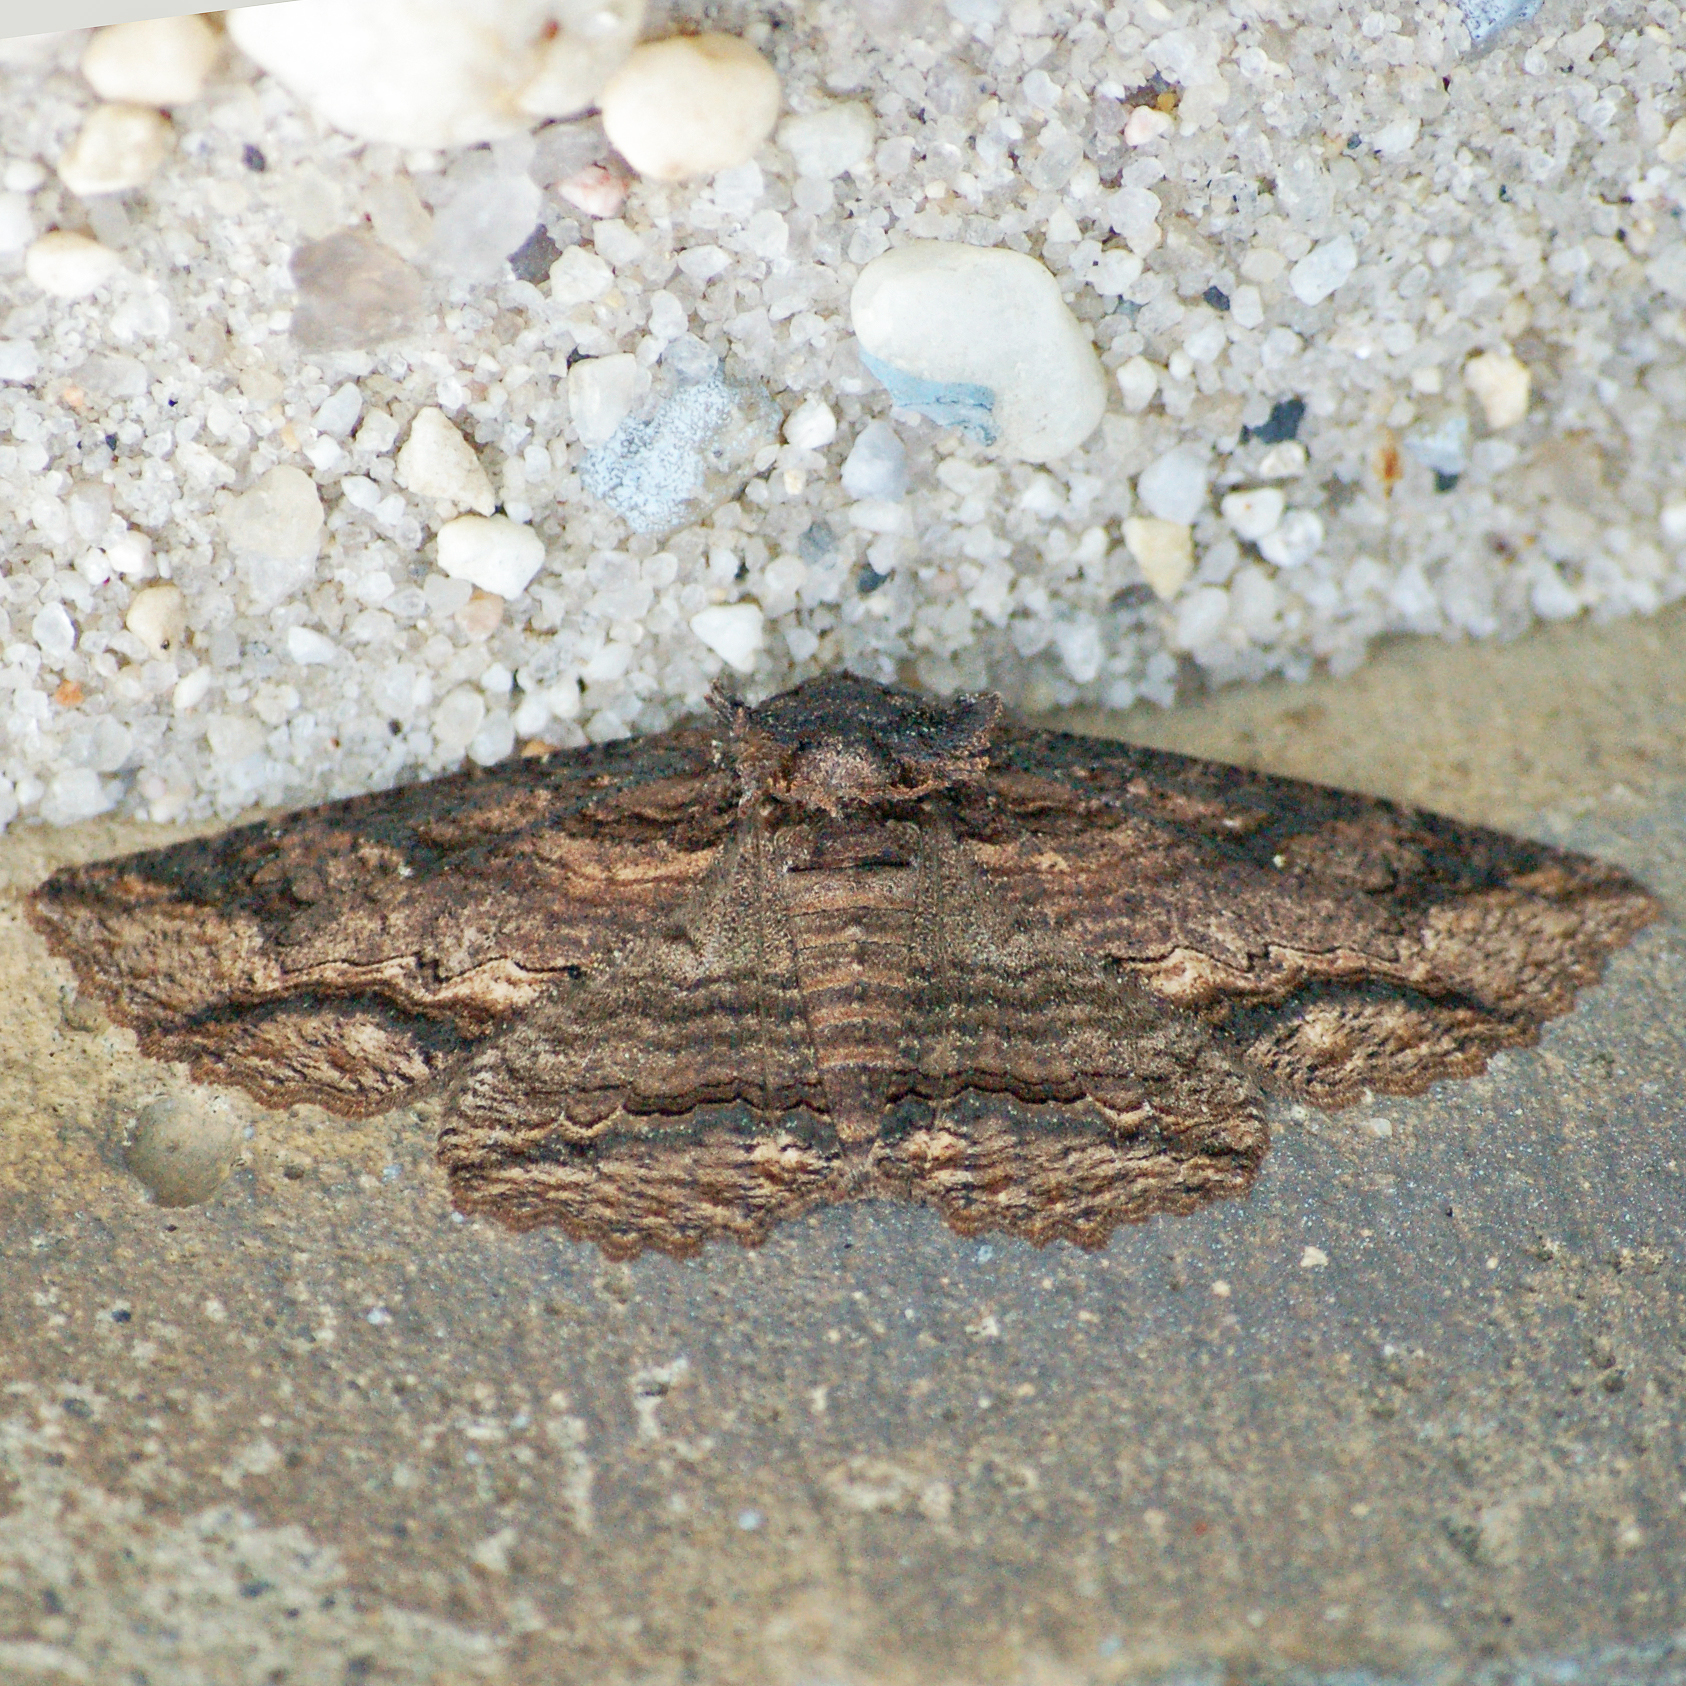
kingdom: Animalia
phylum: Arthropoda
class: Insecta
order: Lepidoptera
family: Erebidae
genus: Zale
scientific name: Zale lunata
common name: Lunate zale moth
